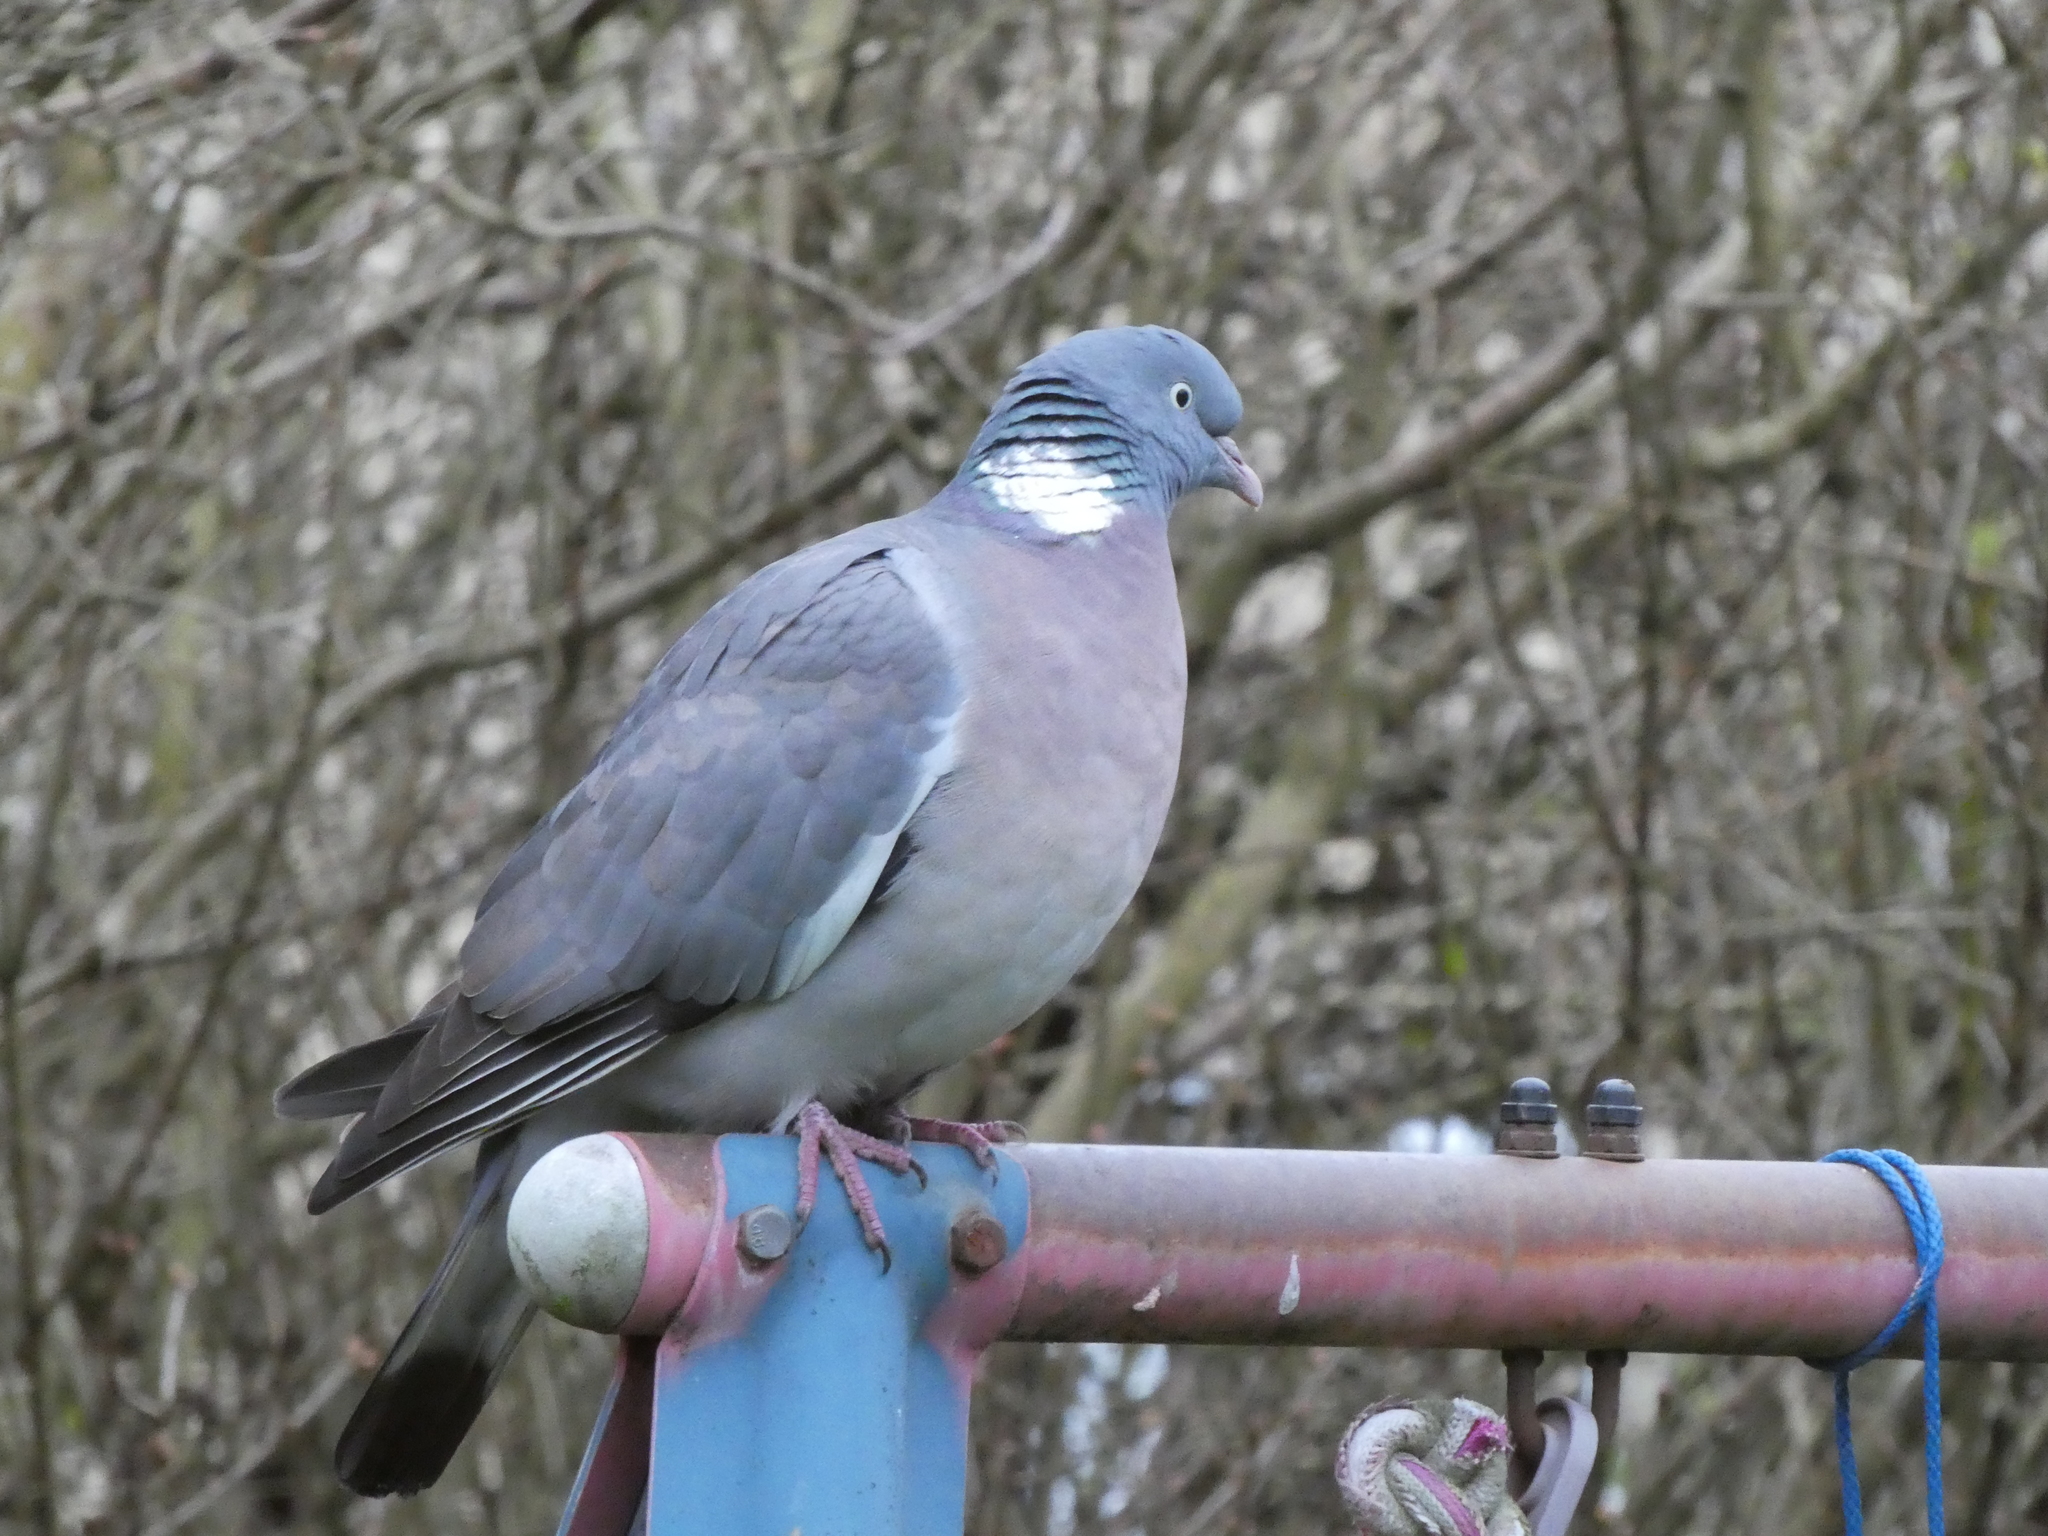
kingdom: Animalia
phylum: Chordata
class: Aves
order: Columbiformes
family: Columbidae
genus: Columba
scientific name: Columba palumbus
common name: Common wood pigeon
